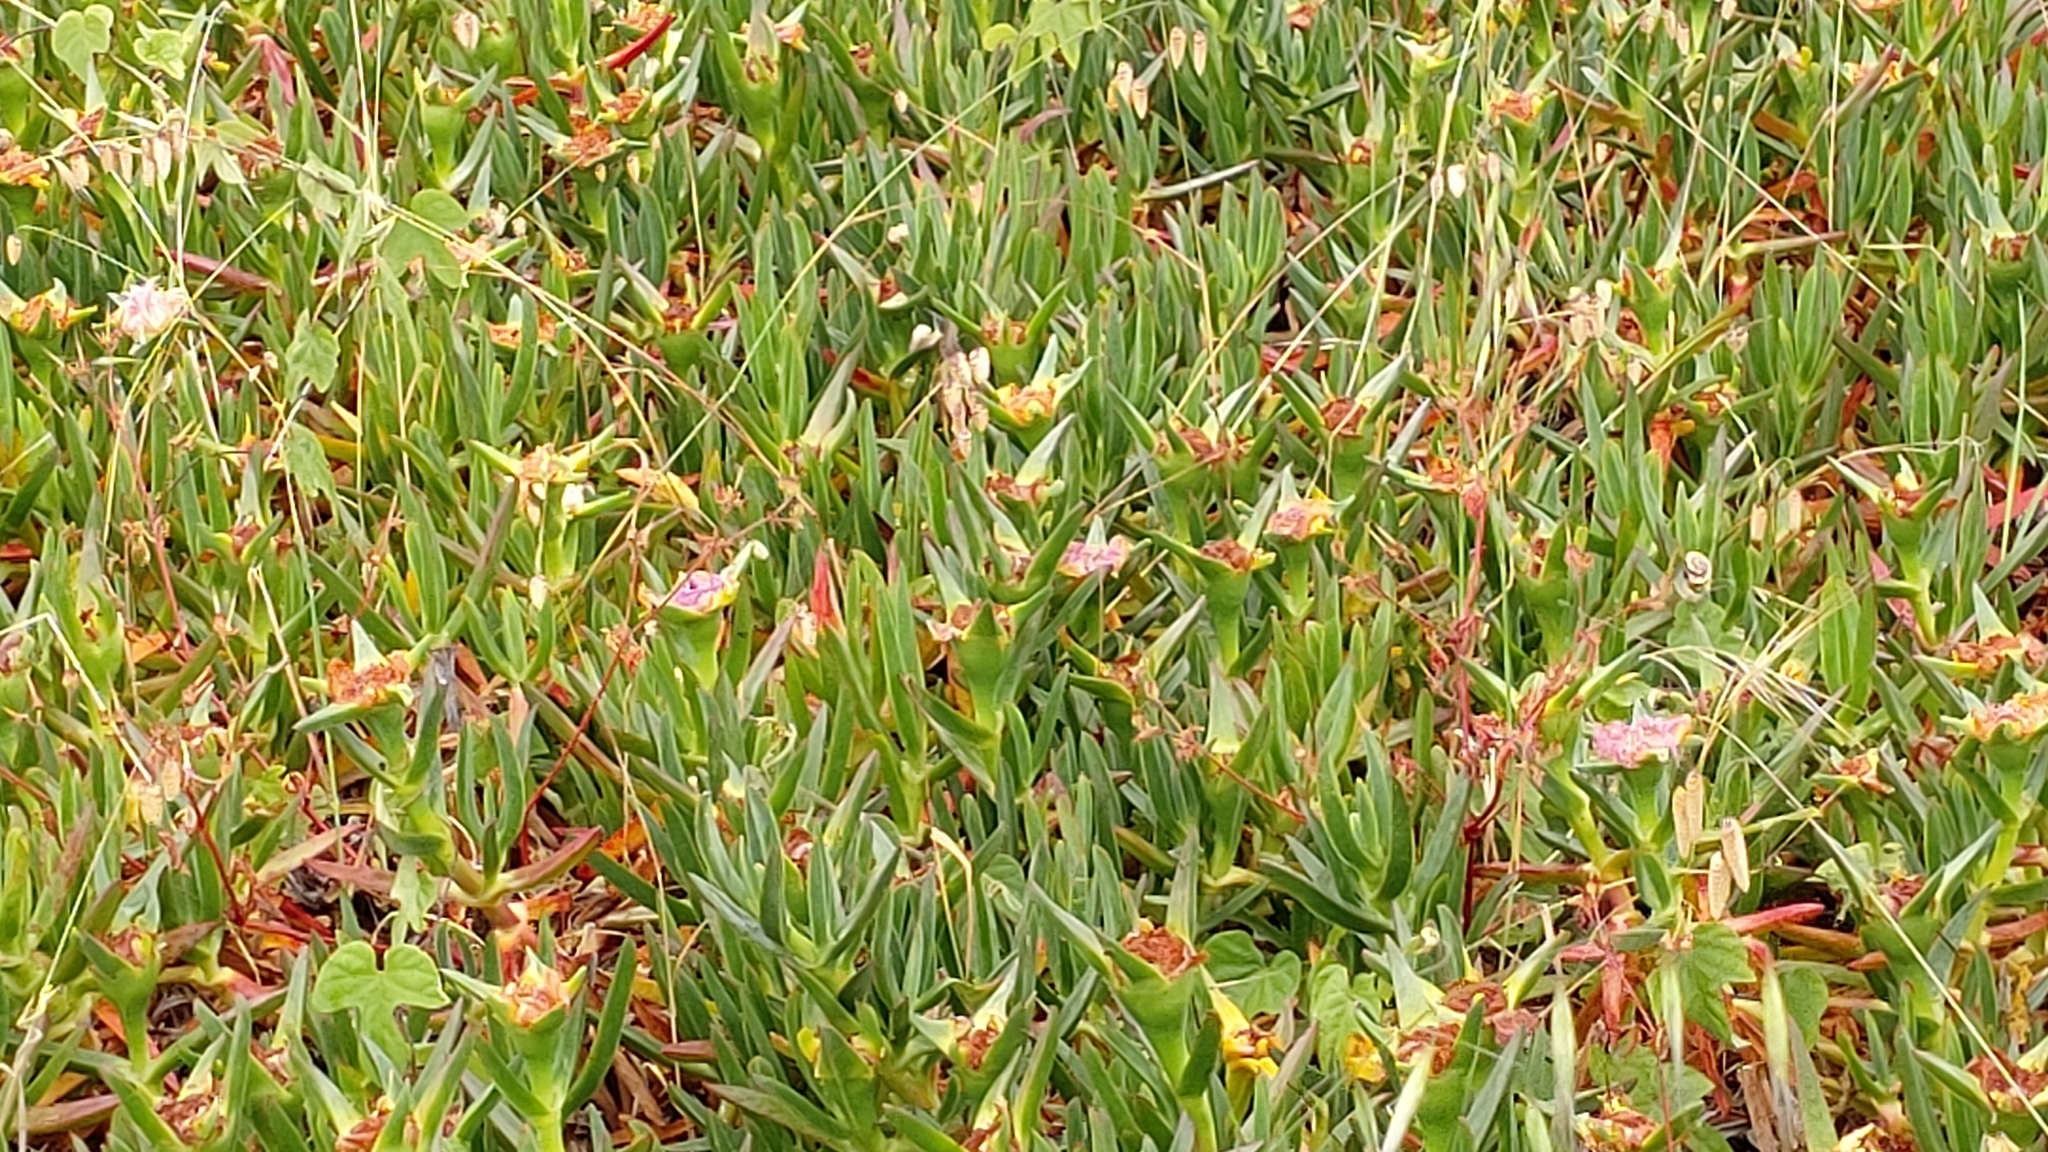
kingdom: Plantae
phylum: Tracheophyta
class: Magnoliopsida
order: Caryophyllales
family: Aizoaceae
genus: Carpobrotus
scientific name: Carpobrotus edulis
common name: Hottentot-fig
